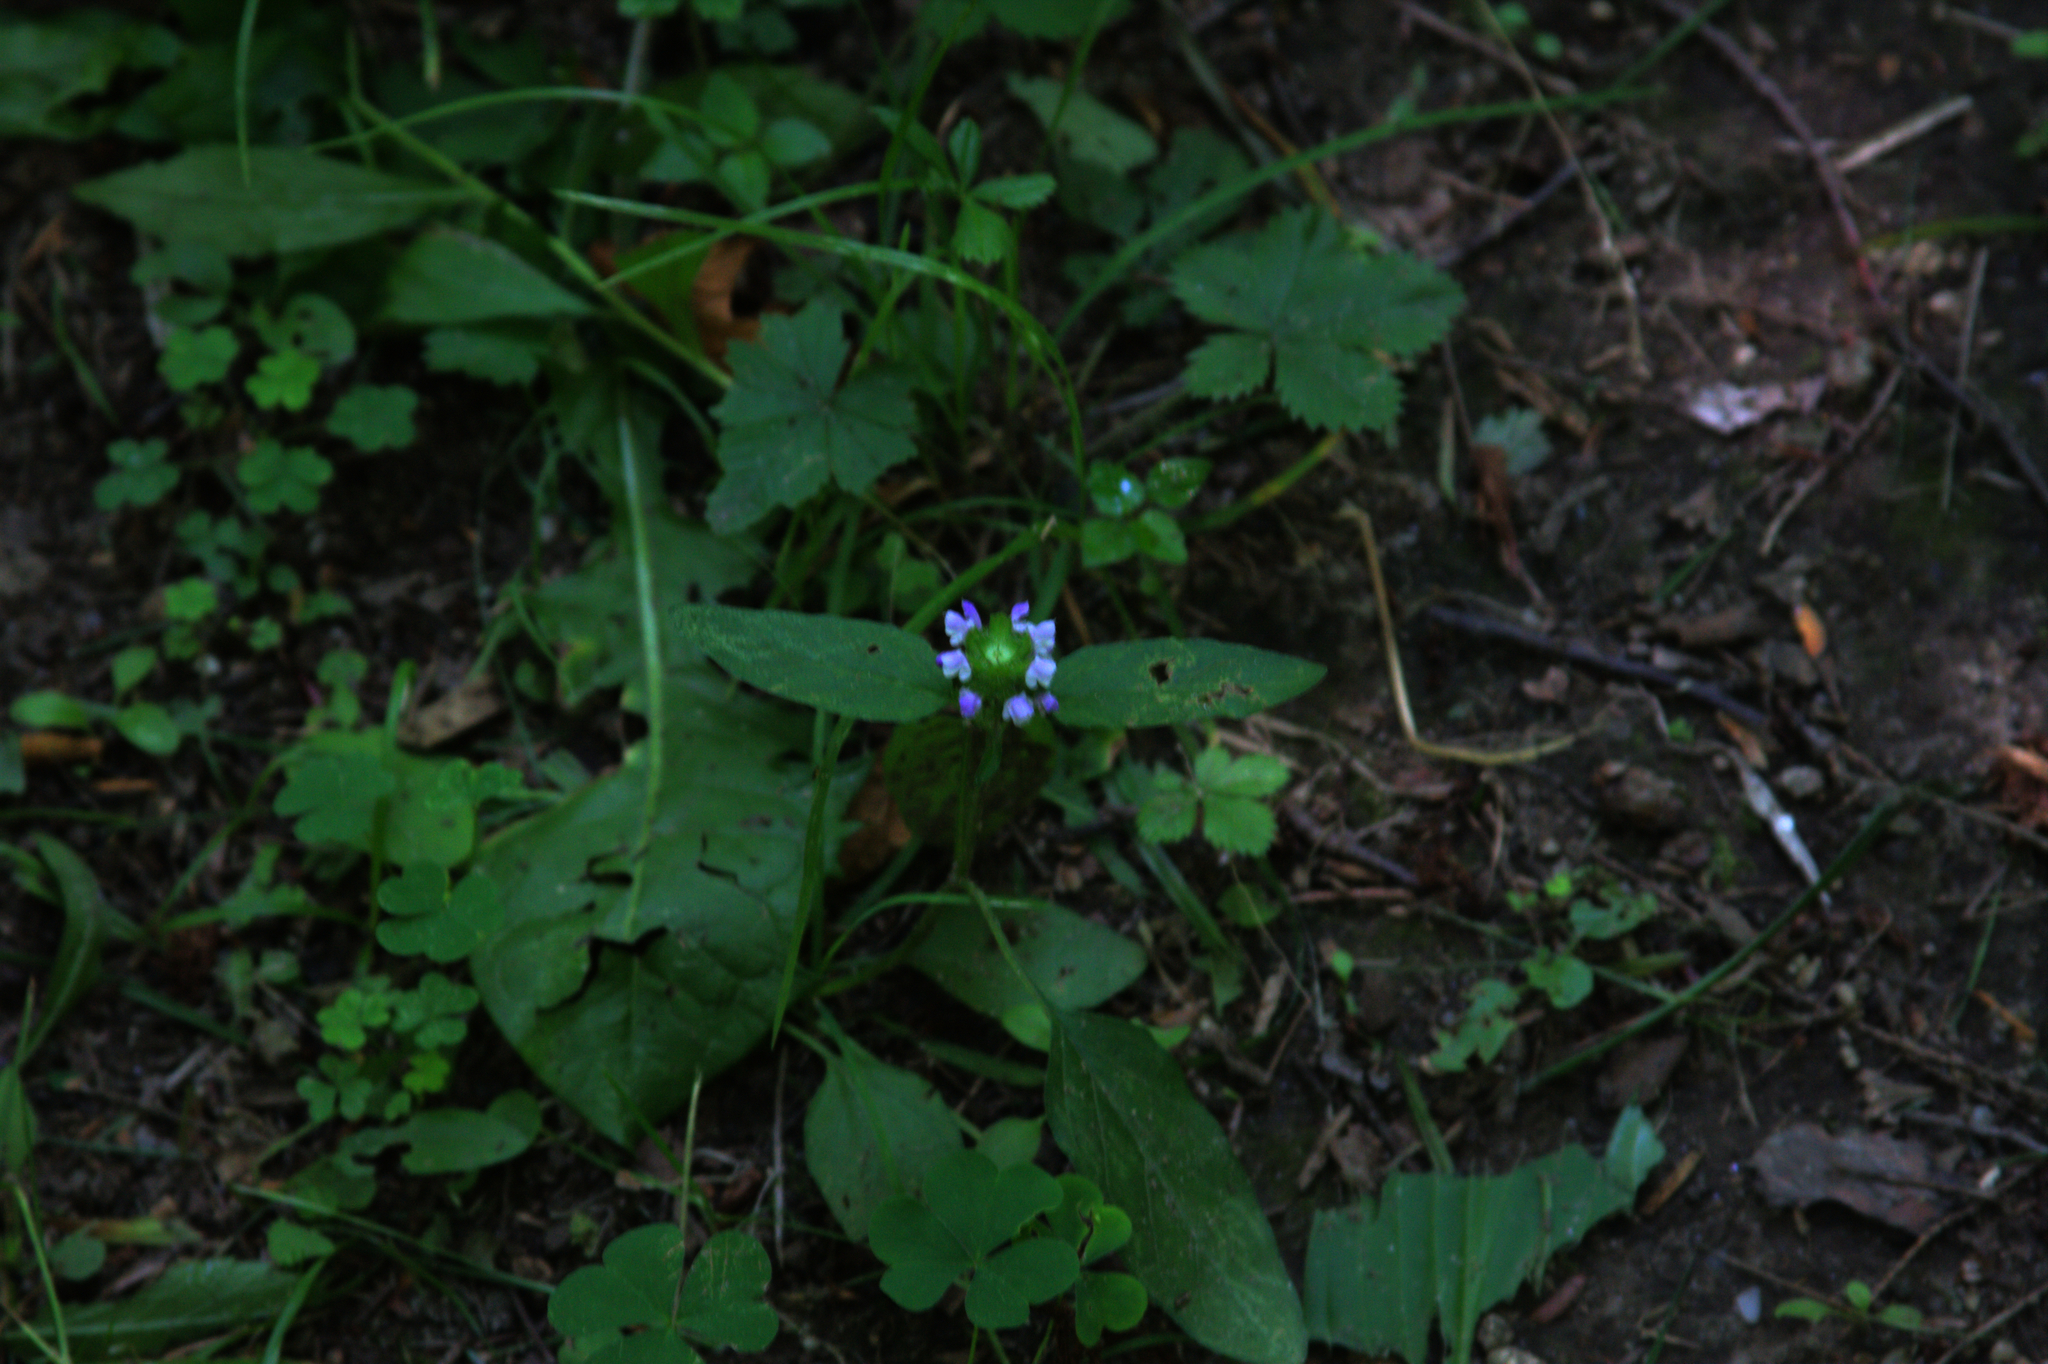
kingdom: Plantae
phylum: Tracheophyta
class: Magnoliopsida
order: Lamiales
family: Lamiaceae
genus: Prunella
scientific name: Prunella vulgaris
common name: Heal-all
